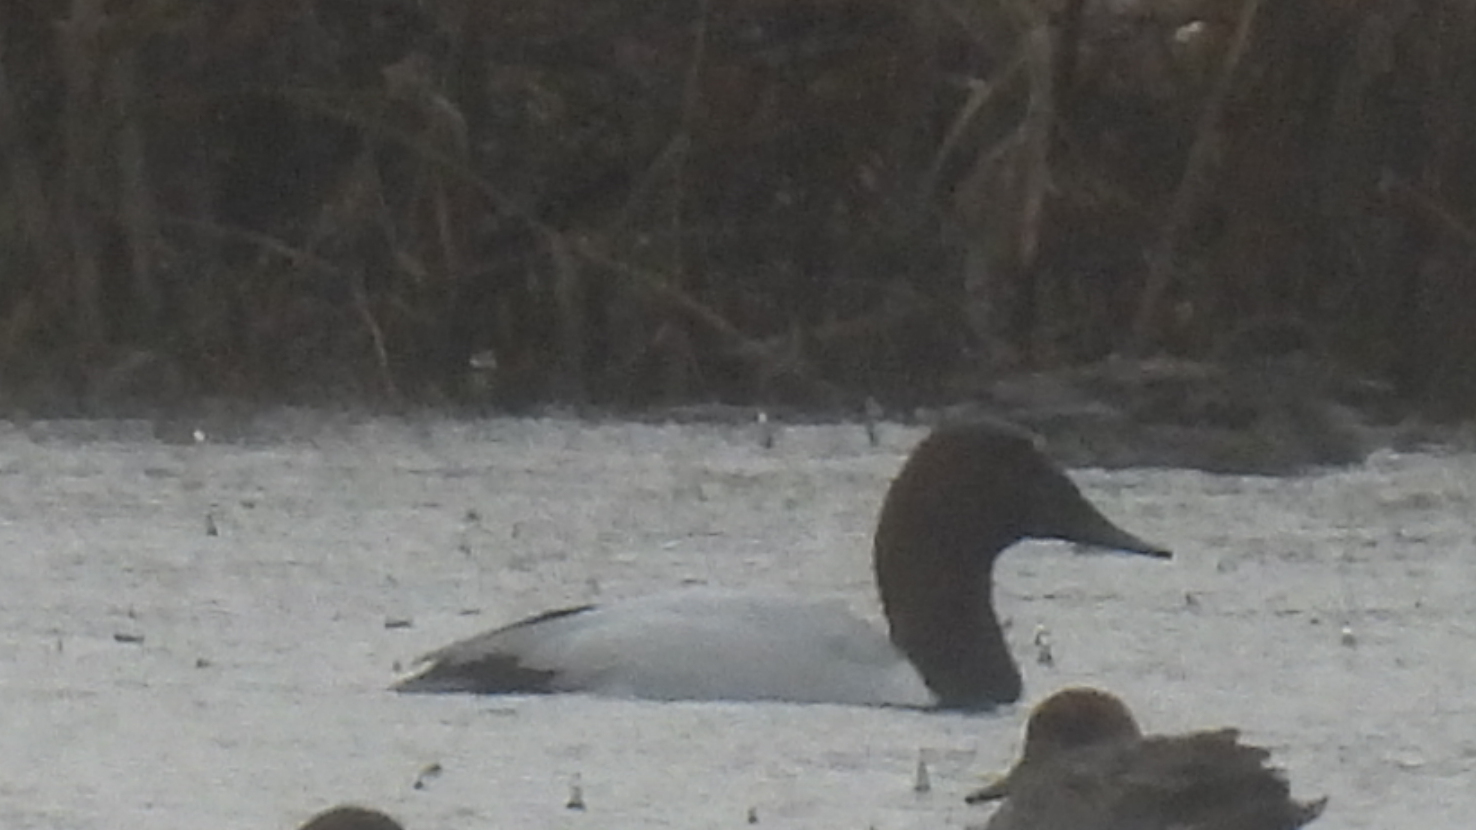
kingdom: Animalia
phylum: Chordata
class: Aves
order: Anseriformes
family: Anatidae
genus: Aythya
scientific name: Aythya valisineria
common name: Canvasback
